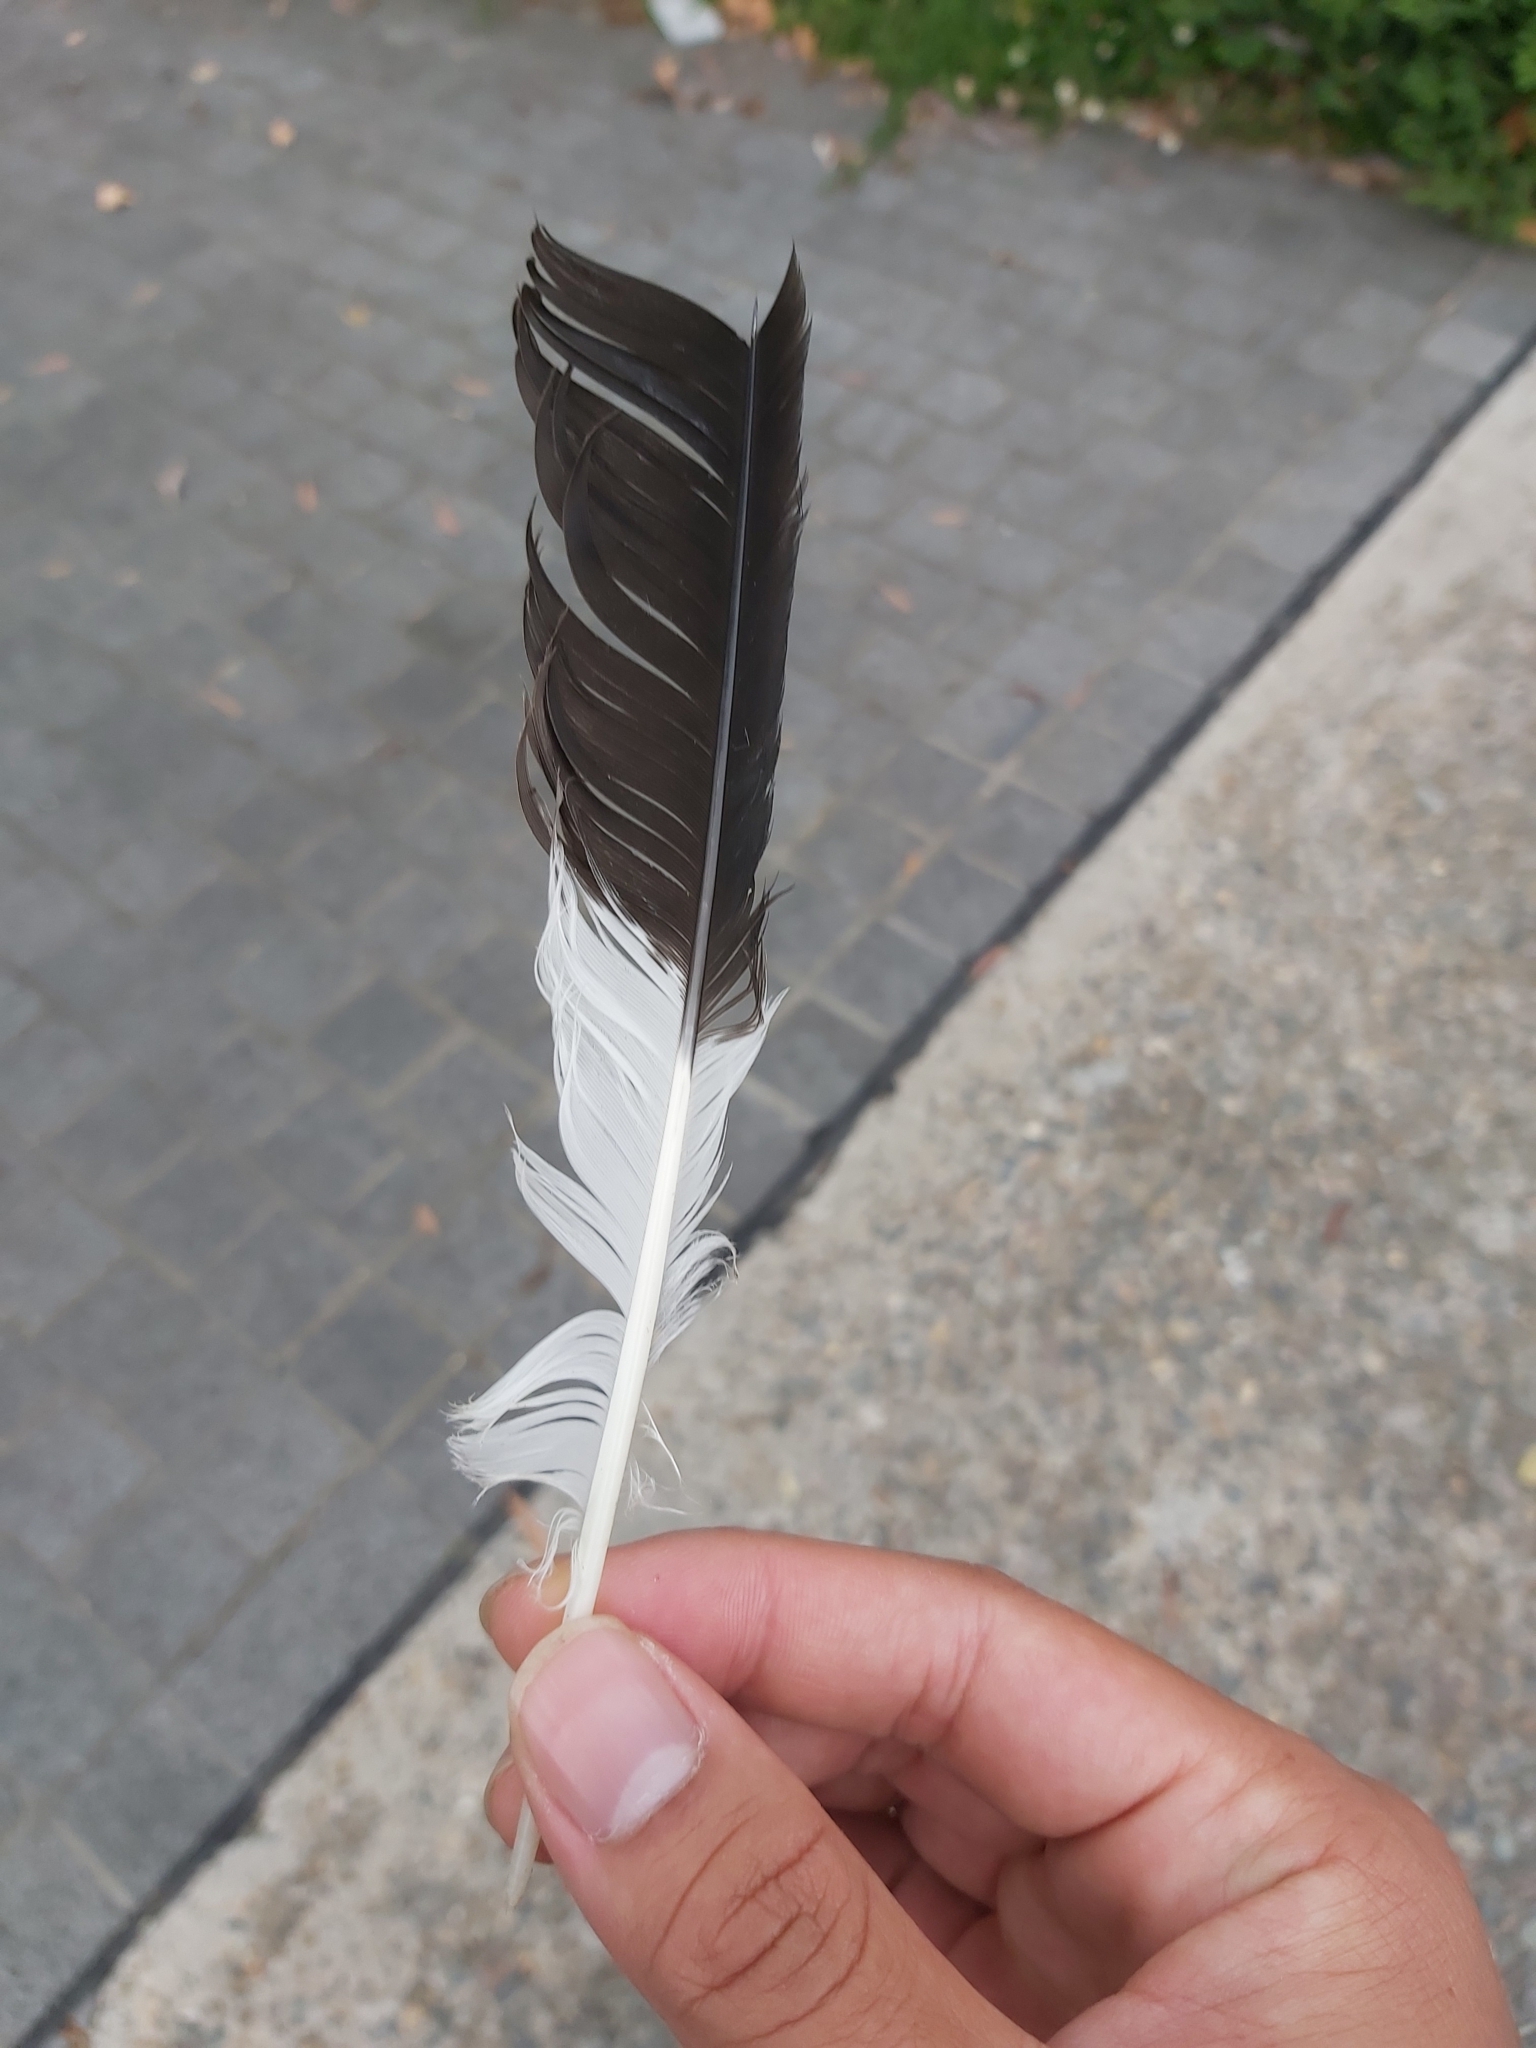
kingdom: Animalia
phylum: Chordata
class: Aves
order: Passeriformes
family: Cracticidae
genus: Strepera
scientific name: Strepera graculina
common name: Pied currawong
